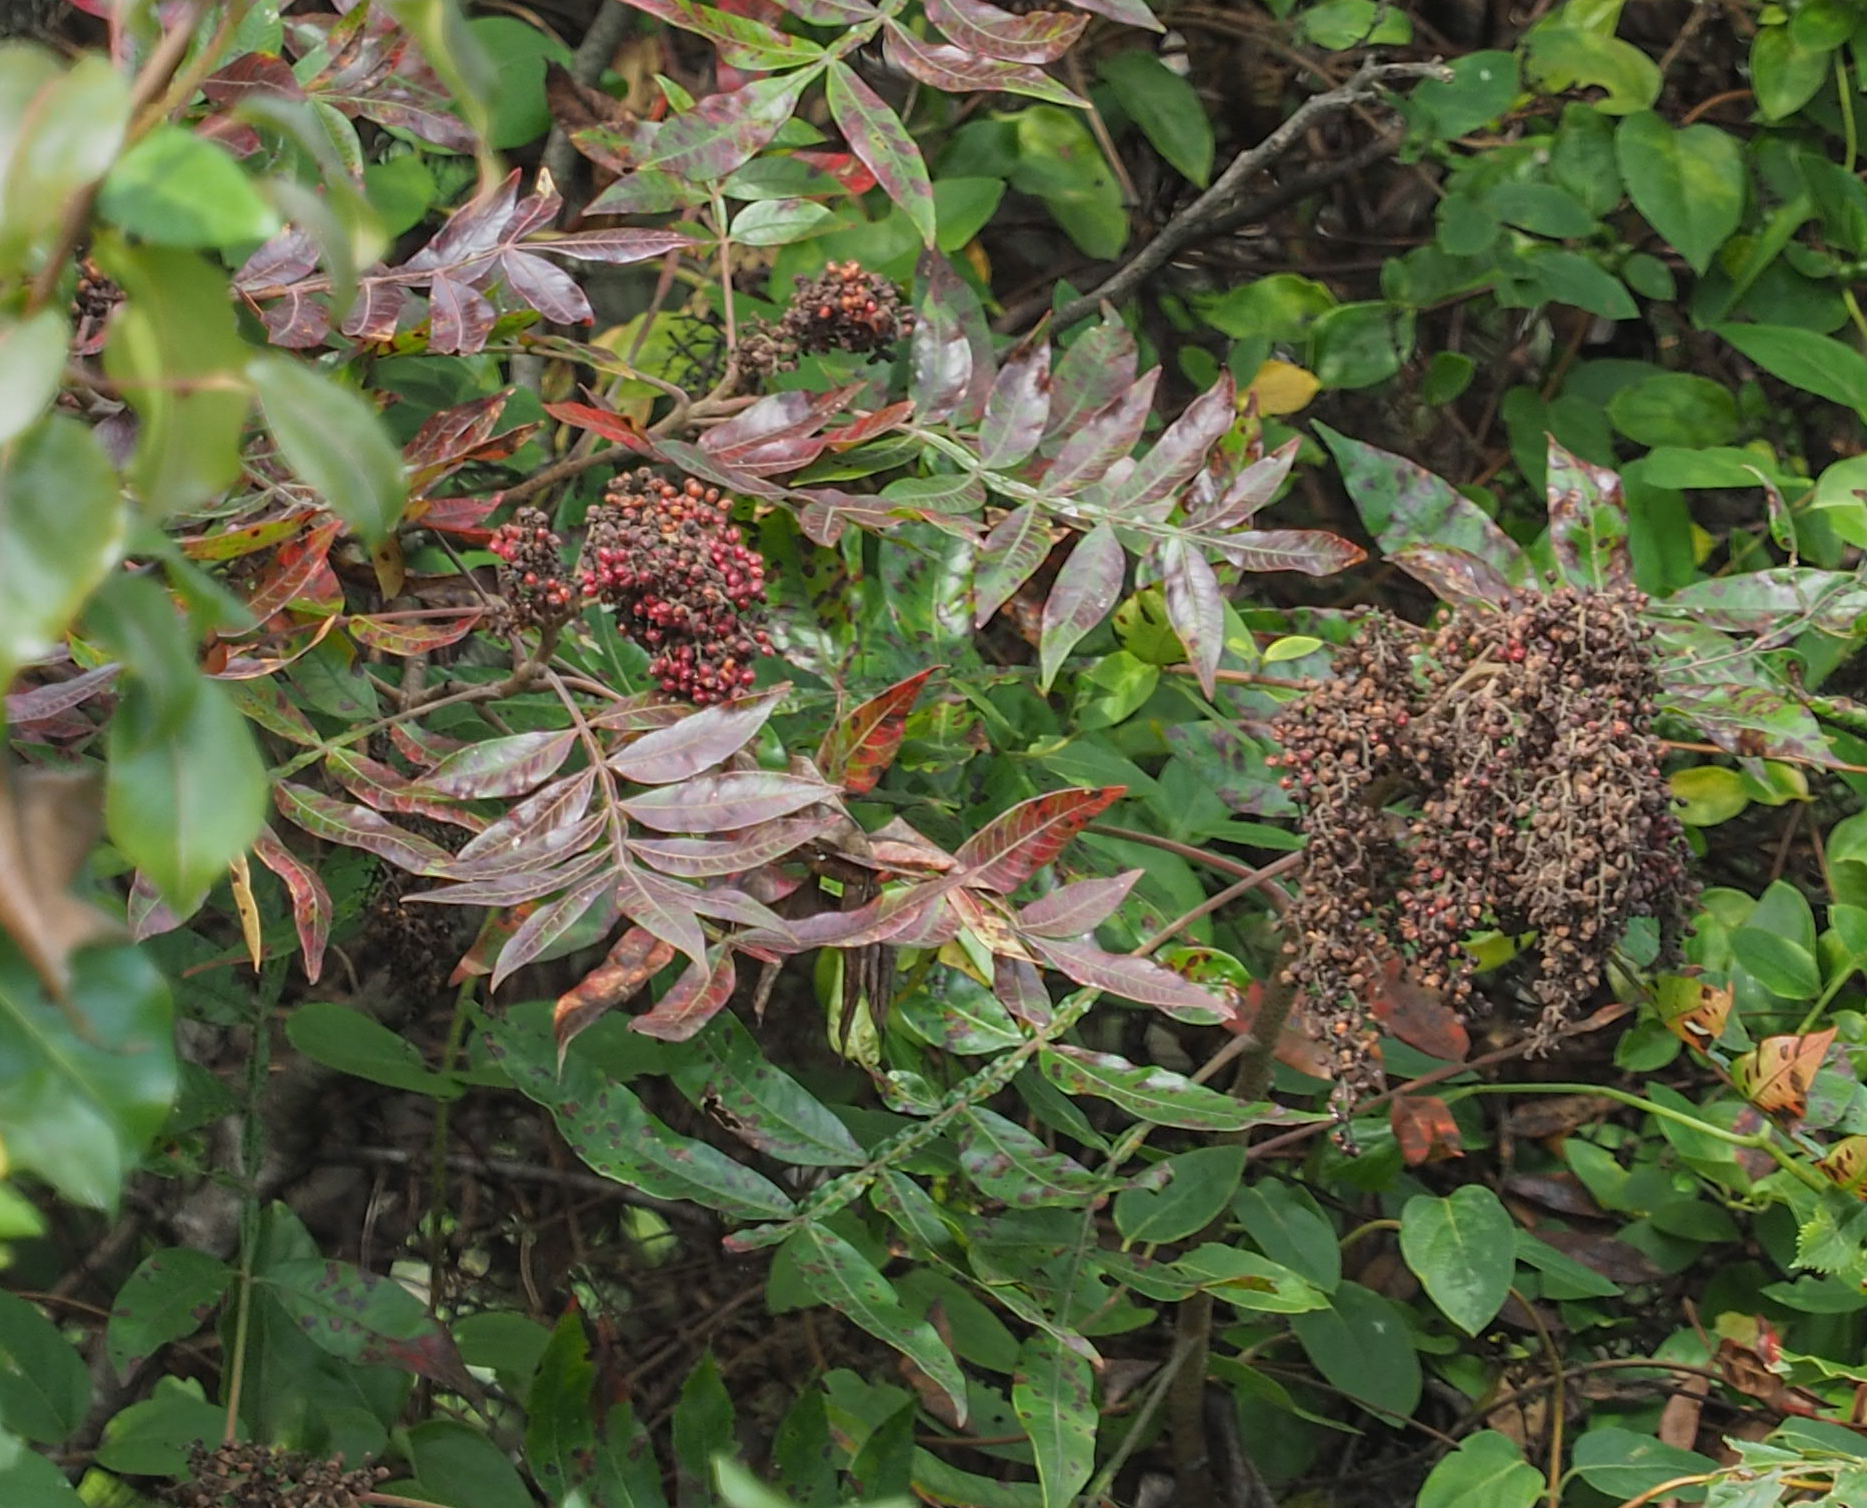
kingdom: Plantae
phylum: Tracheophyta
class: Magnoliopsida
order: Sapindales
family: Anacardiaceae
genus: Rhus
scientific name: Rhus copallina
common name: Shining sumac
